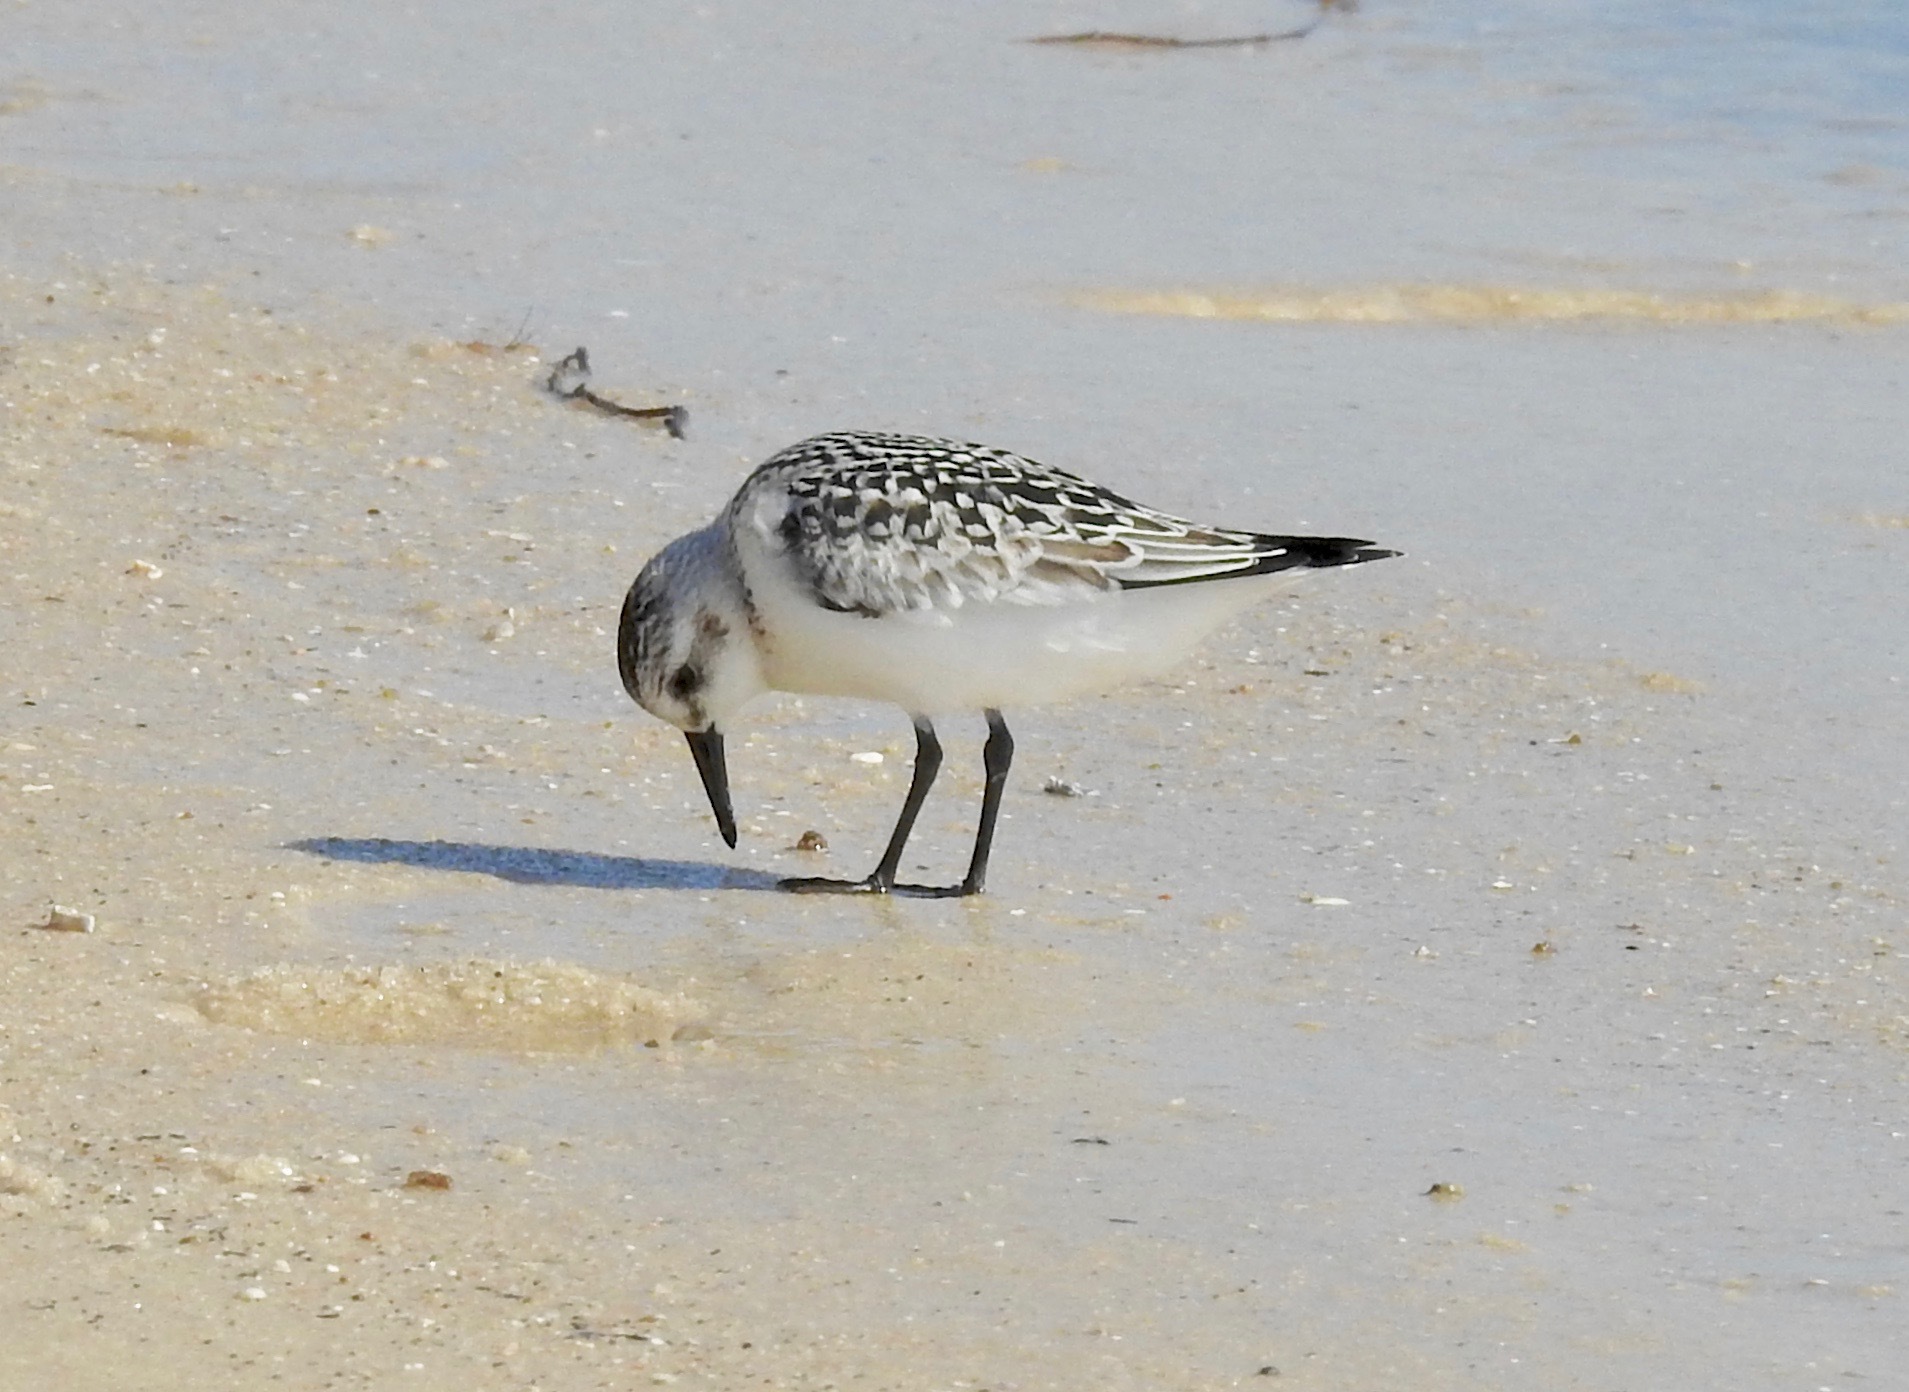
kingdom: Animalia
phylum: Chordata
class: Aves
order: Charadriiformes
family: Scolopacidae
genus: Calidris
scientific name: Calidris alba
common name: Sanderling
